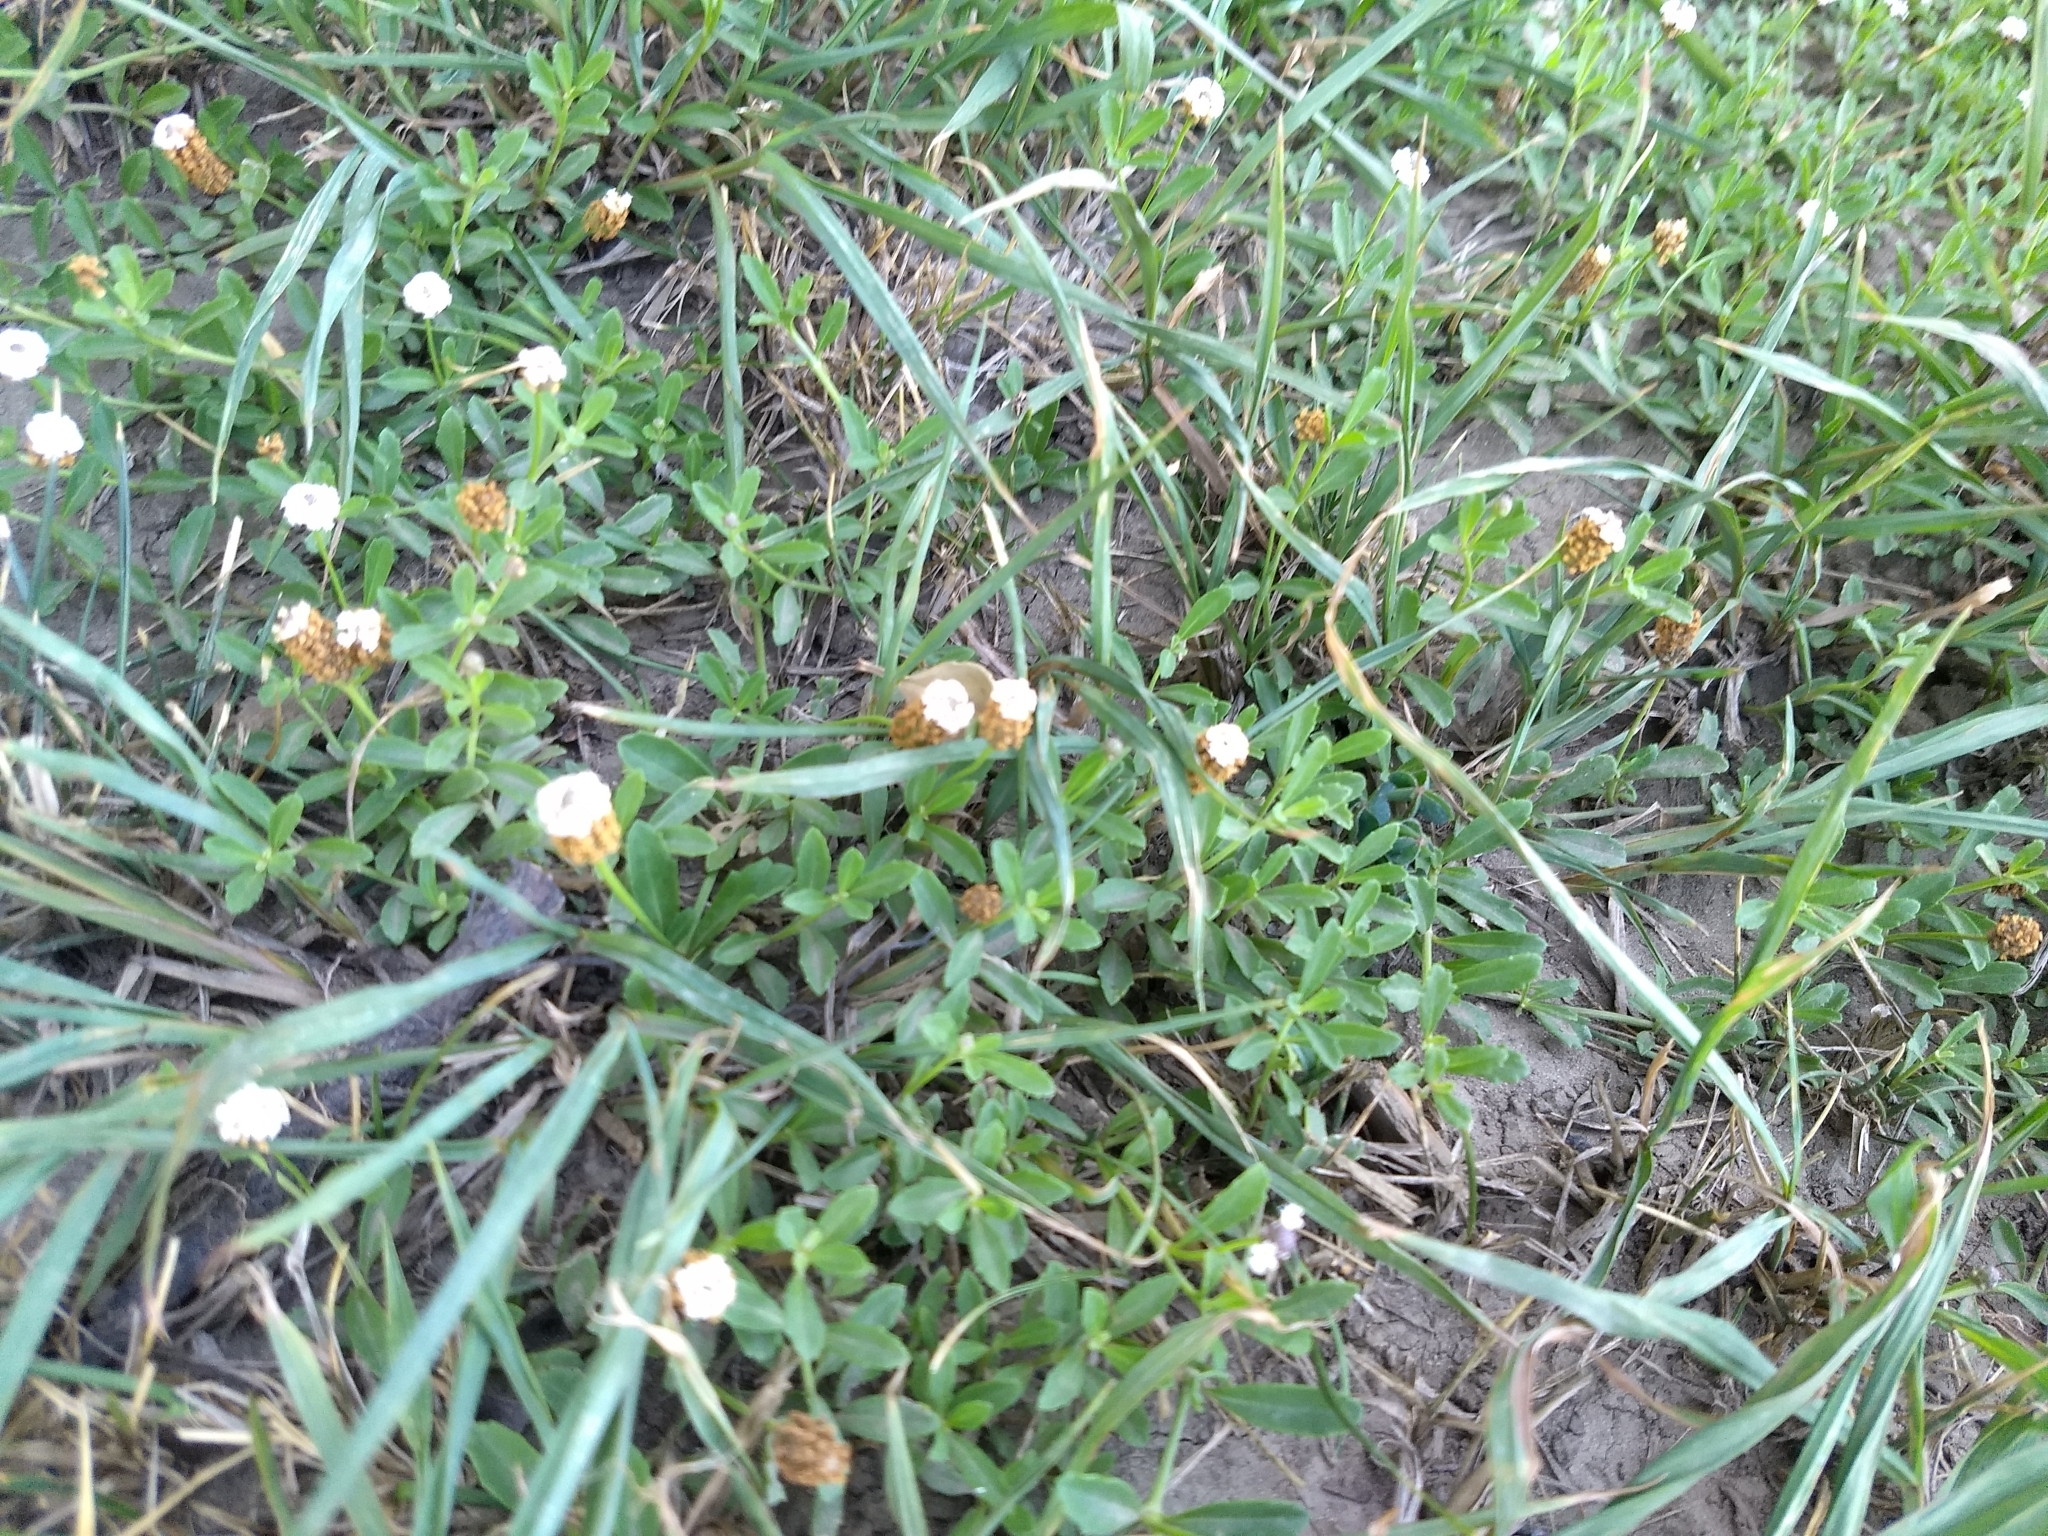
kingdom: Plantae
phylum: Tracheophyta
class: Magnoliopsida
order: Lamiales
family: Verbenaceae
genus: Phyla
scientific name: Phyla nodiflora
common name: Frogfruit
